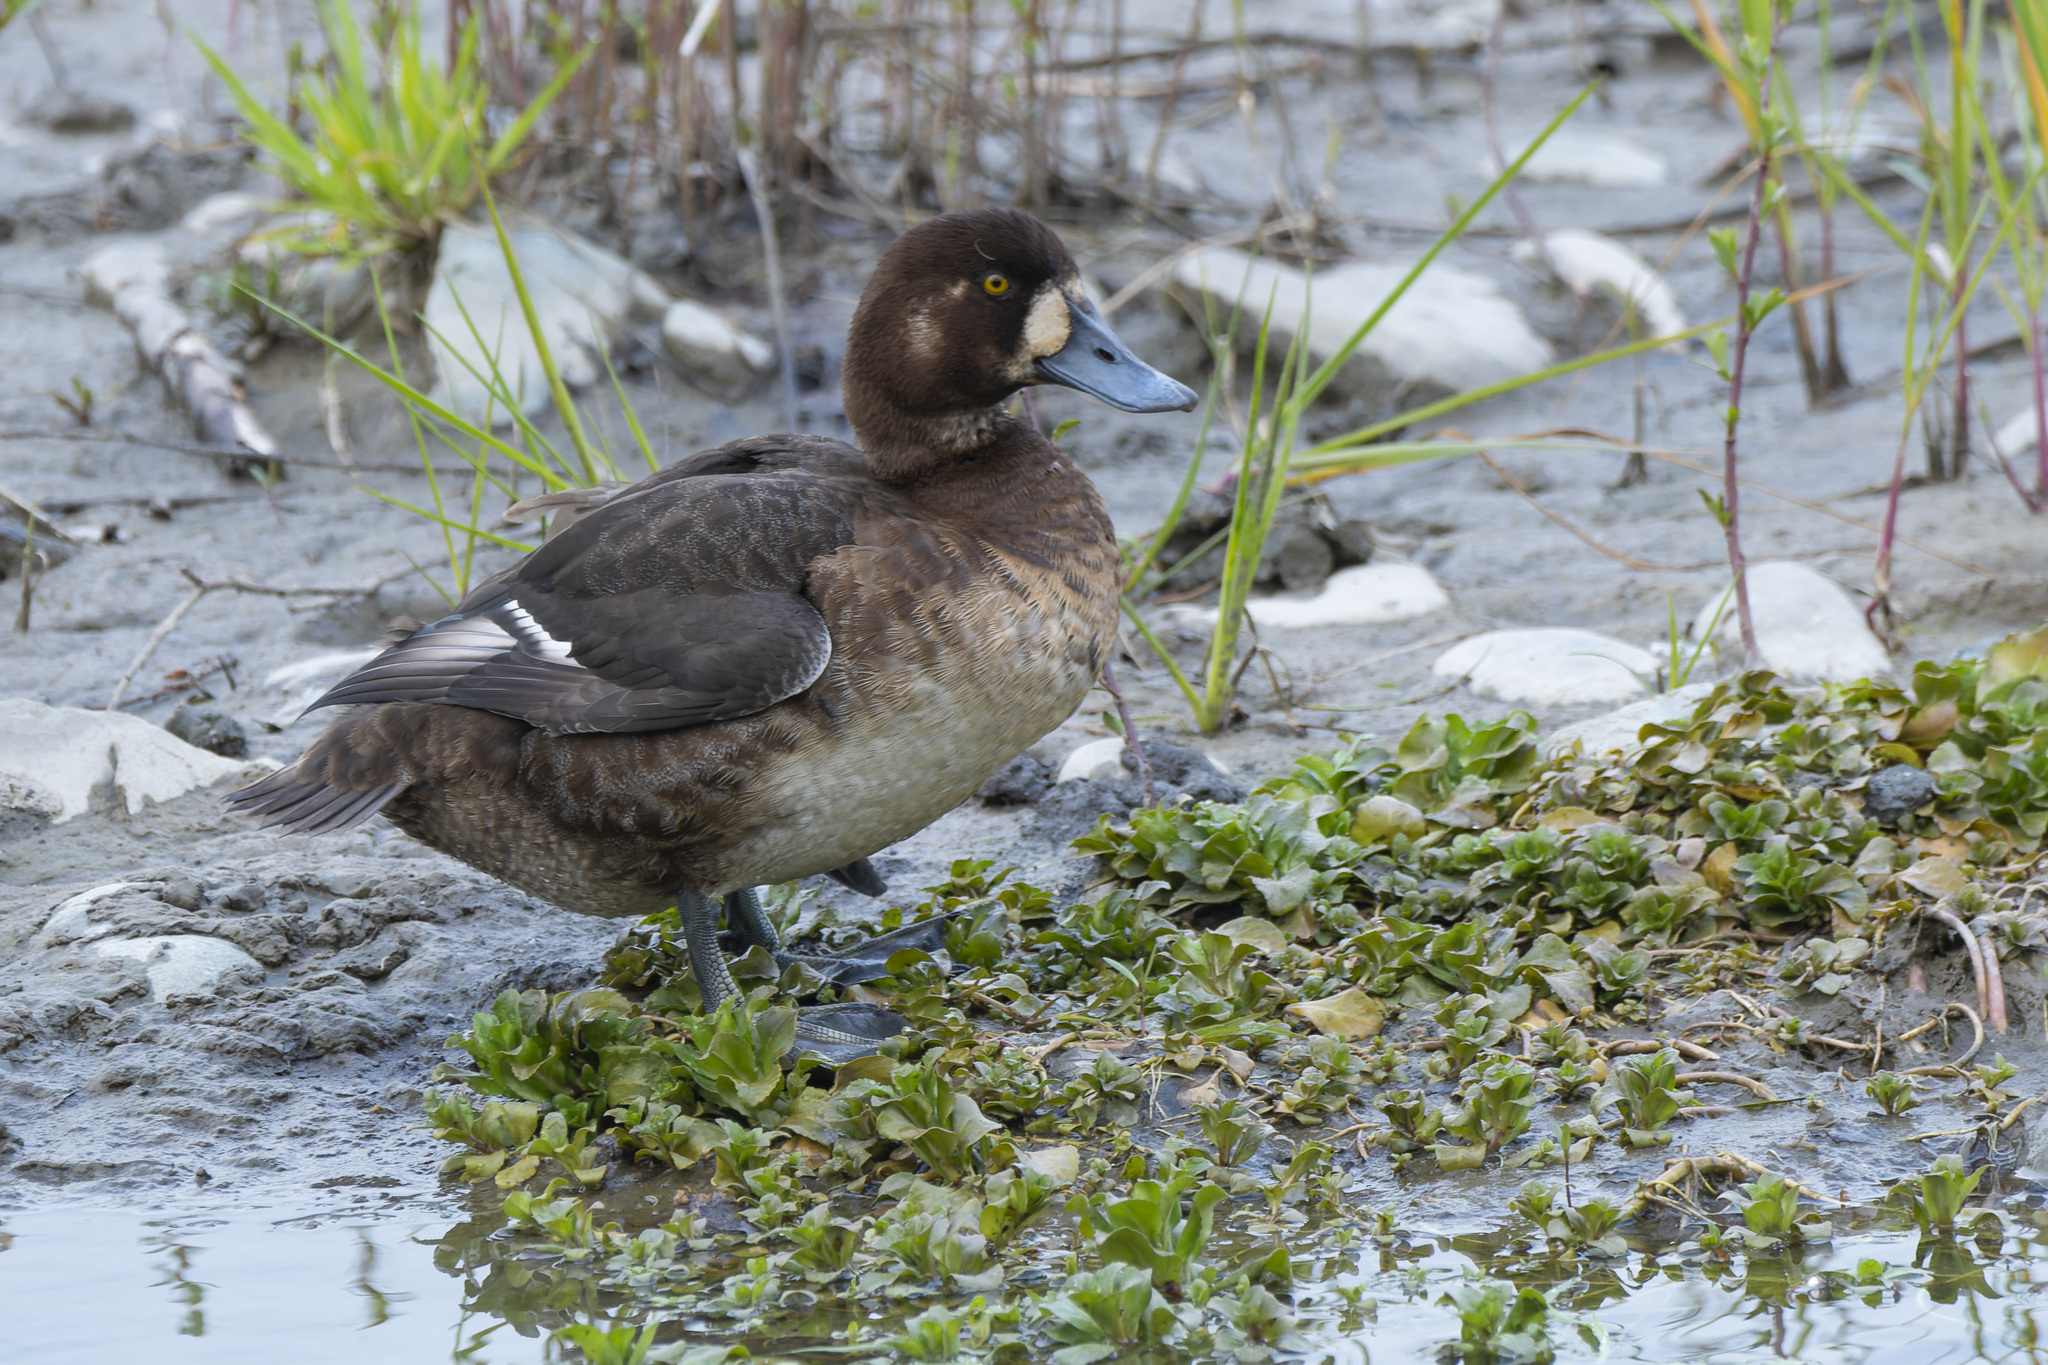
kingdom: Animalia
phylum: Chordata
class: Aves
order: Anseriformes
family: Anatidae
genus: Aythya
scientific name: Aythya marila
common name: Greater scaup
